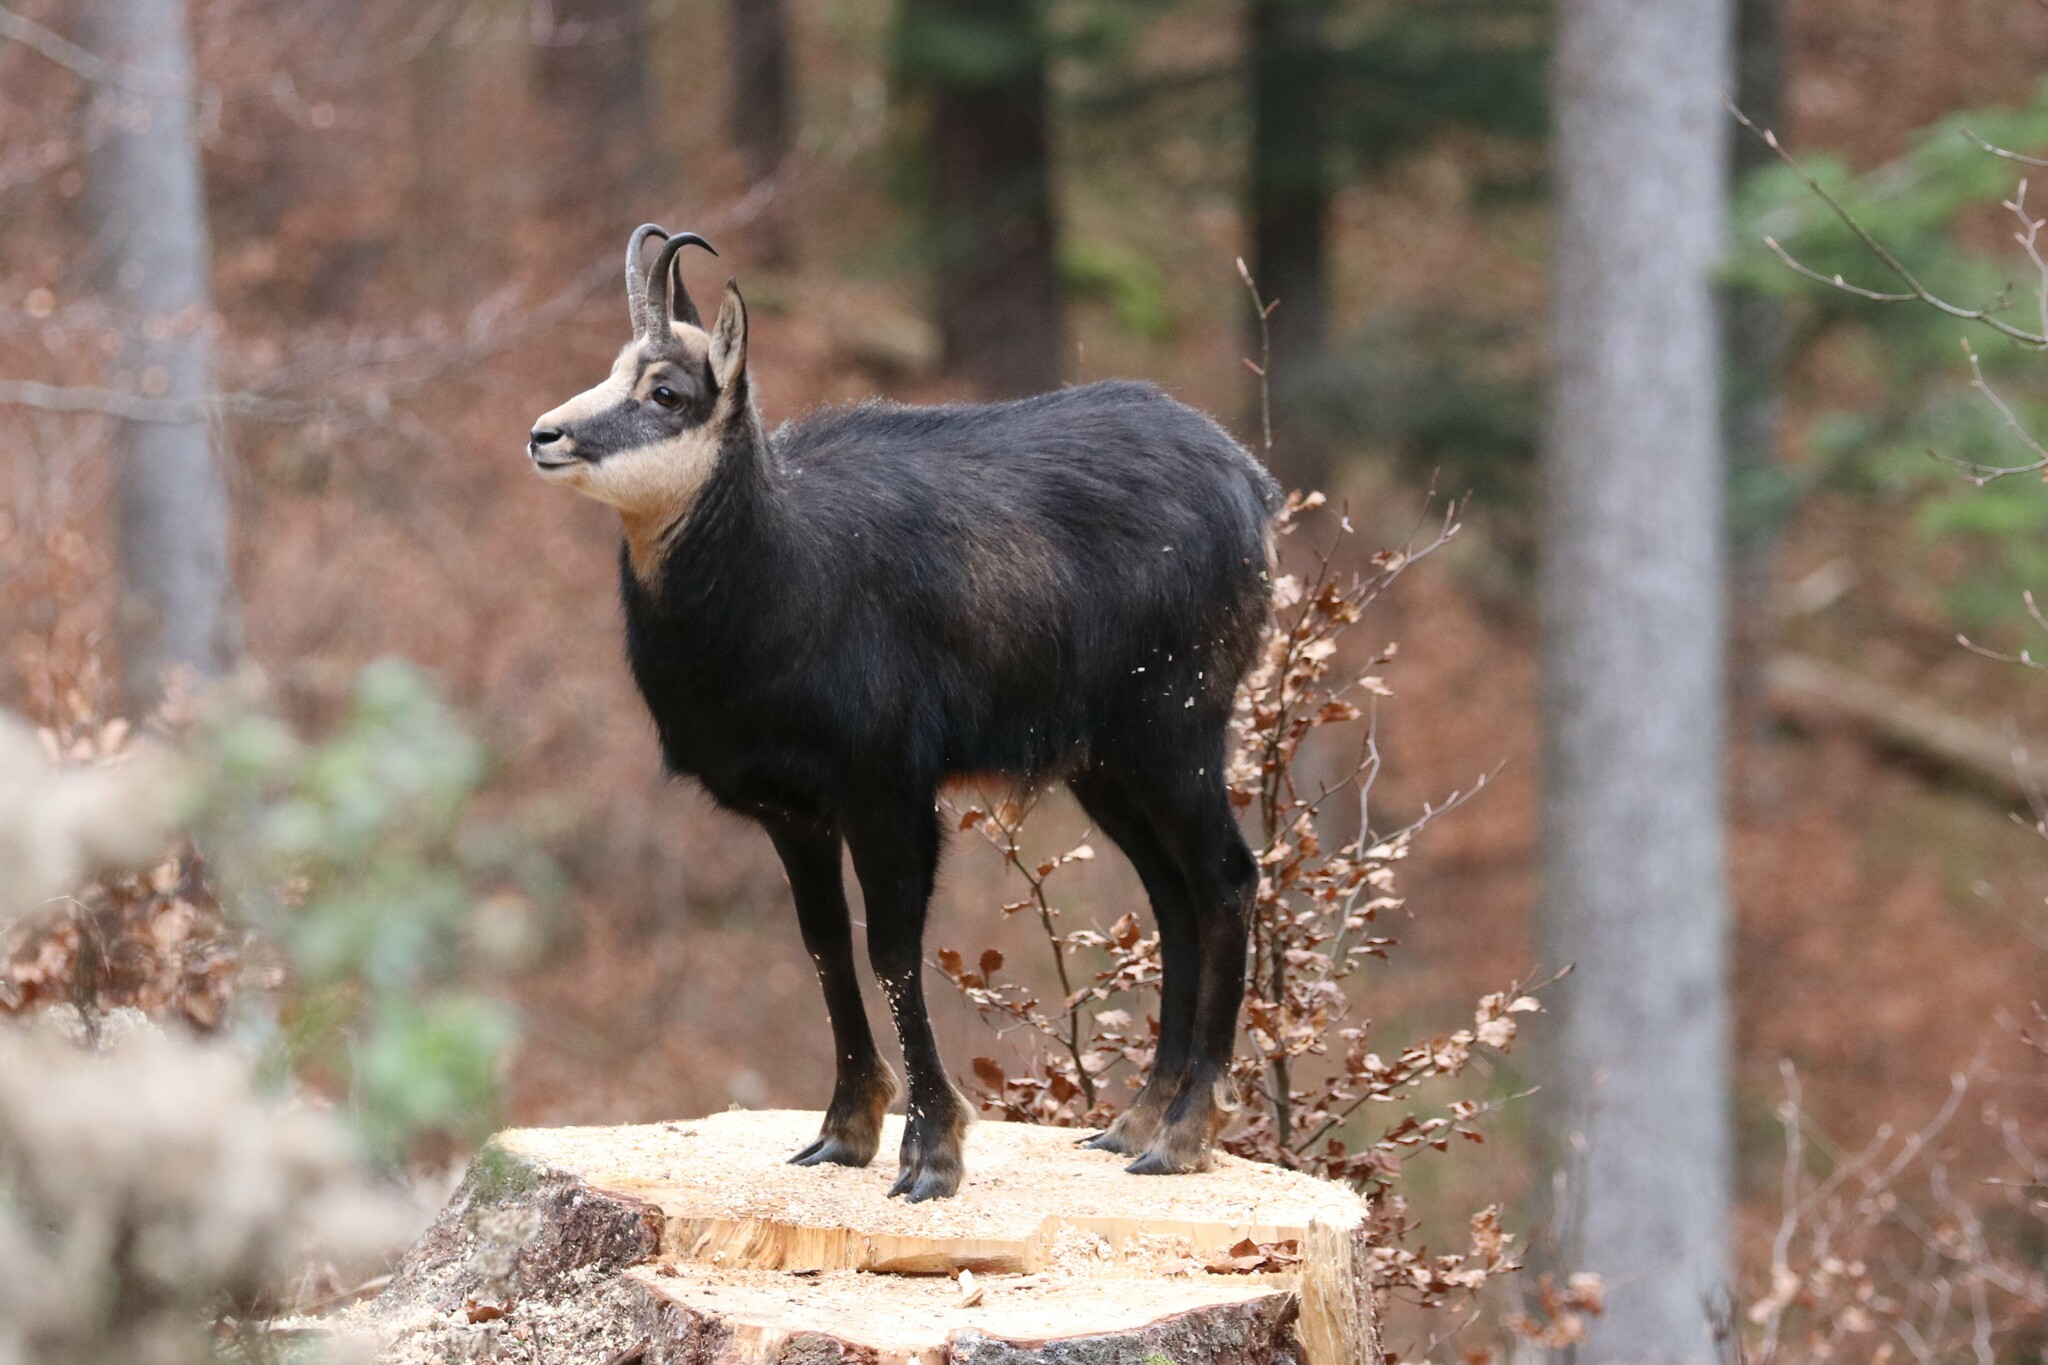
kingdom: Animalia
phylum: Chordata
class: Mammalia
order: Artiodactyla
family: Bovidae
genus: Rupicapra
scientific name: Rupicapra rupicapra
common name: Chamois
